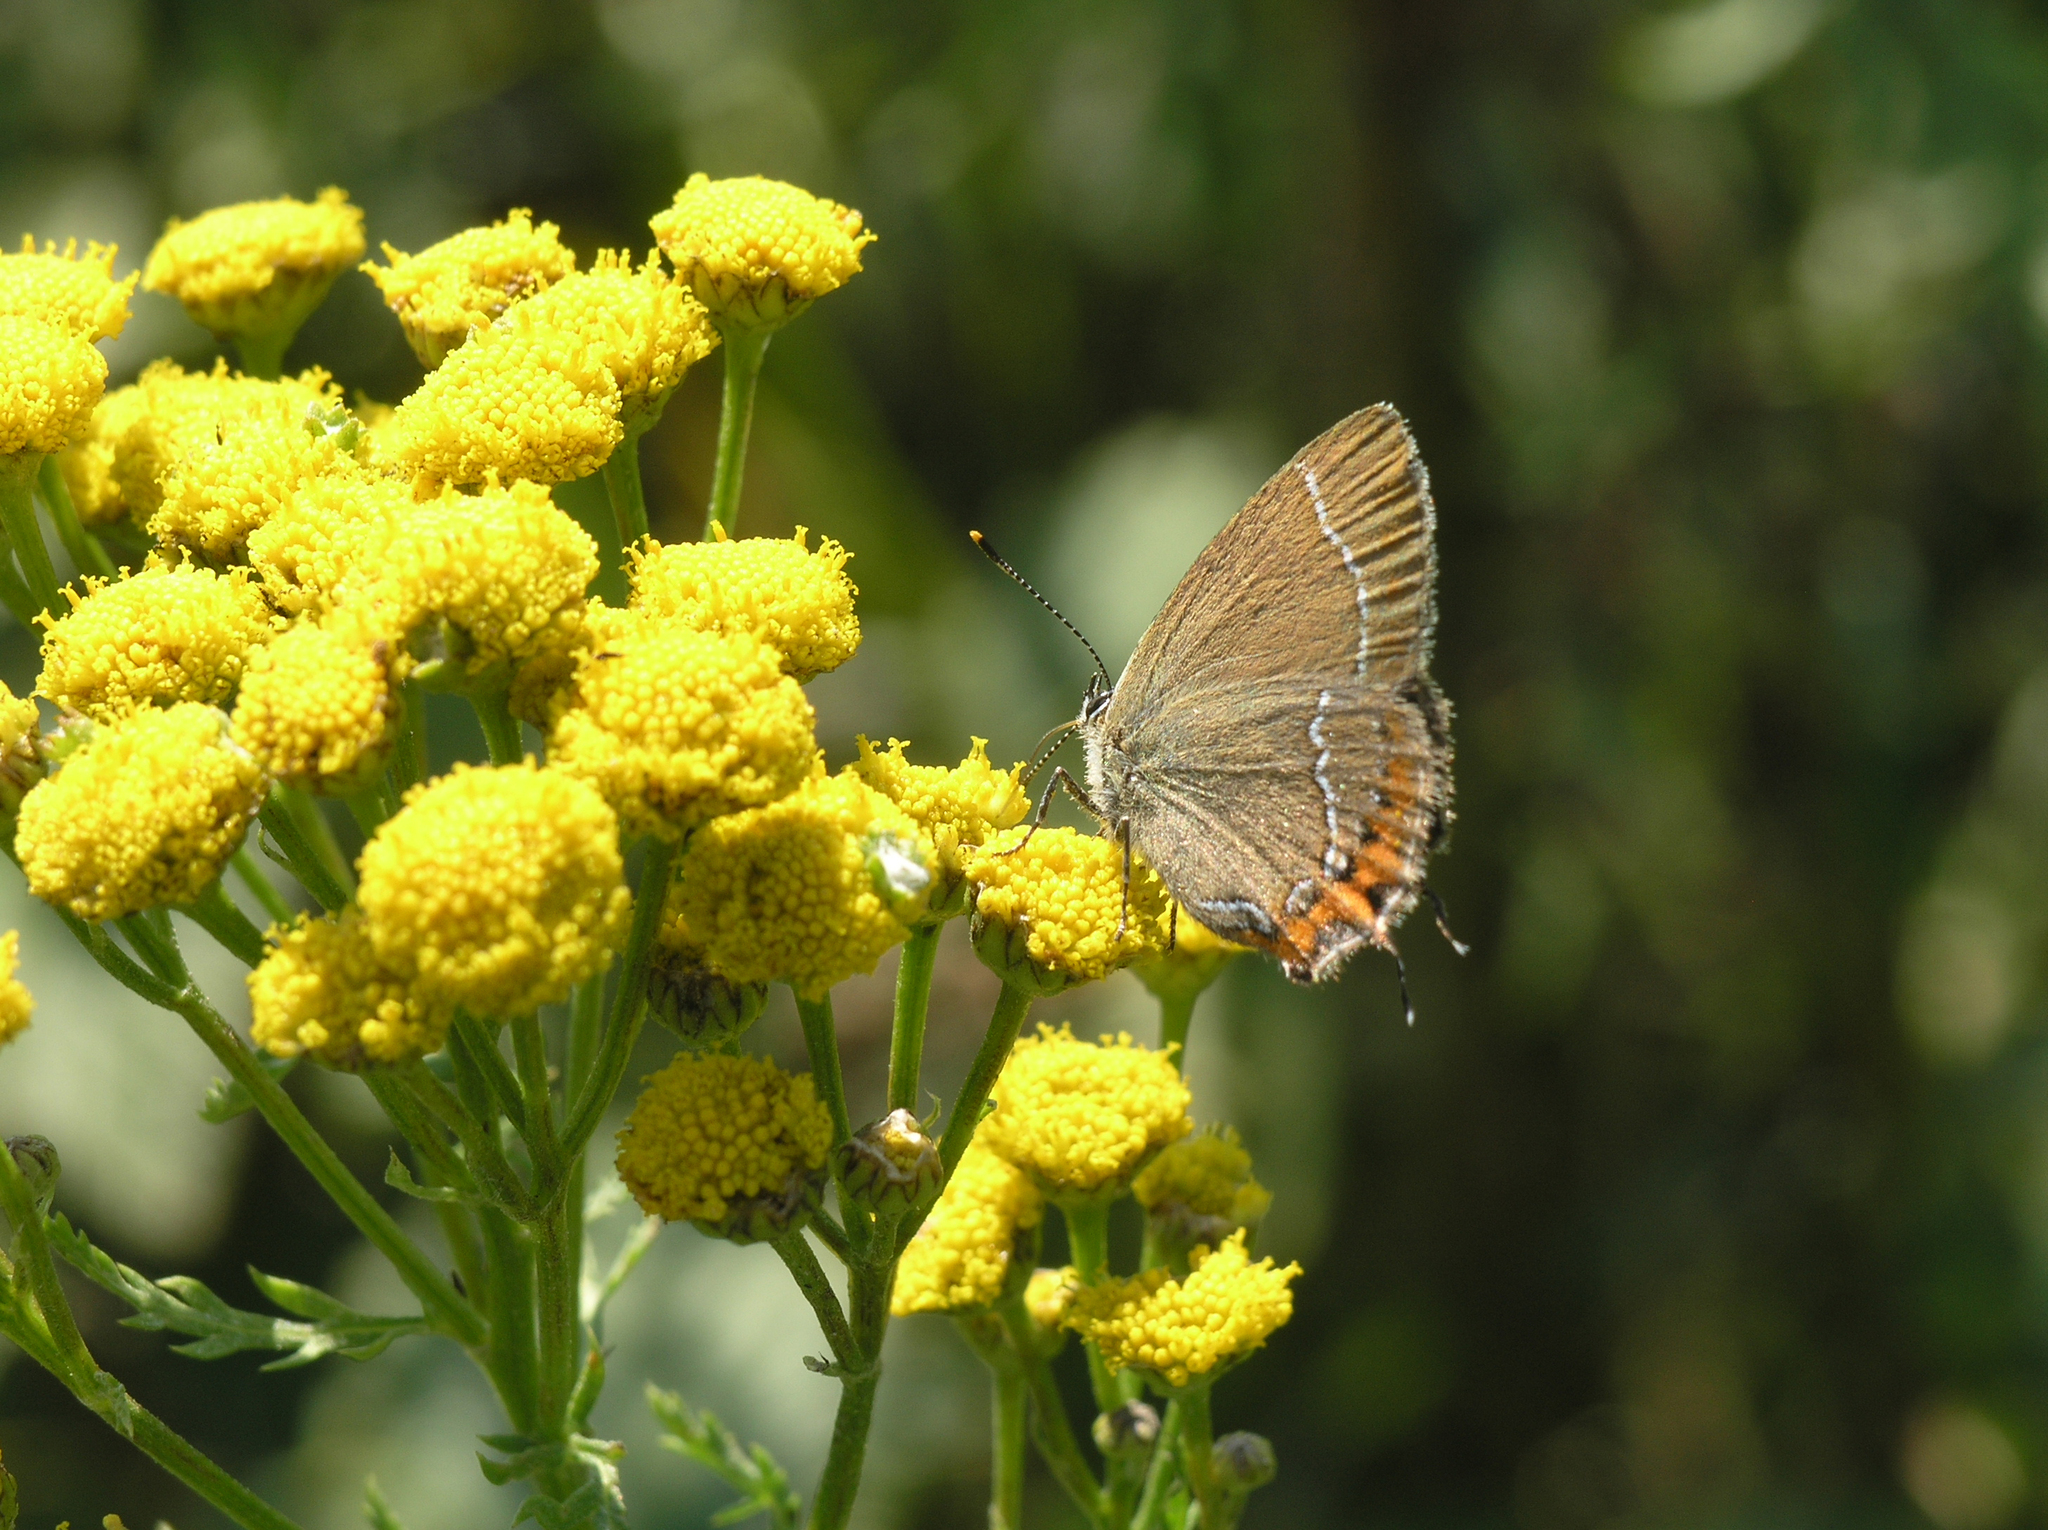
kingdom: Plantae
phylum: Tracheophyta
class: Magnoliopsida
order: Asterales
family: Asteraceae
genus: Tanacetum
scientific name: Tanacetum vulgare
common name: Common tansy
